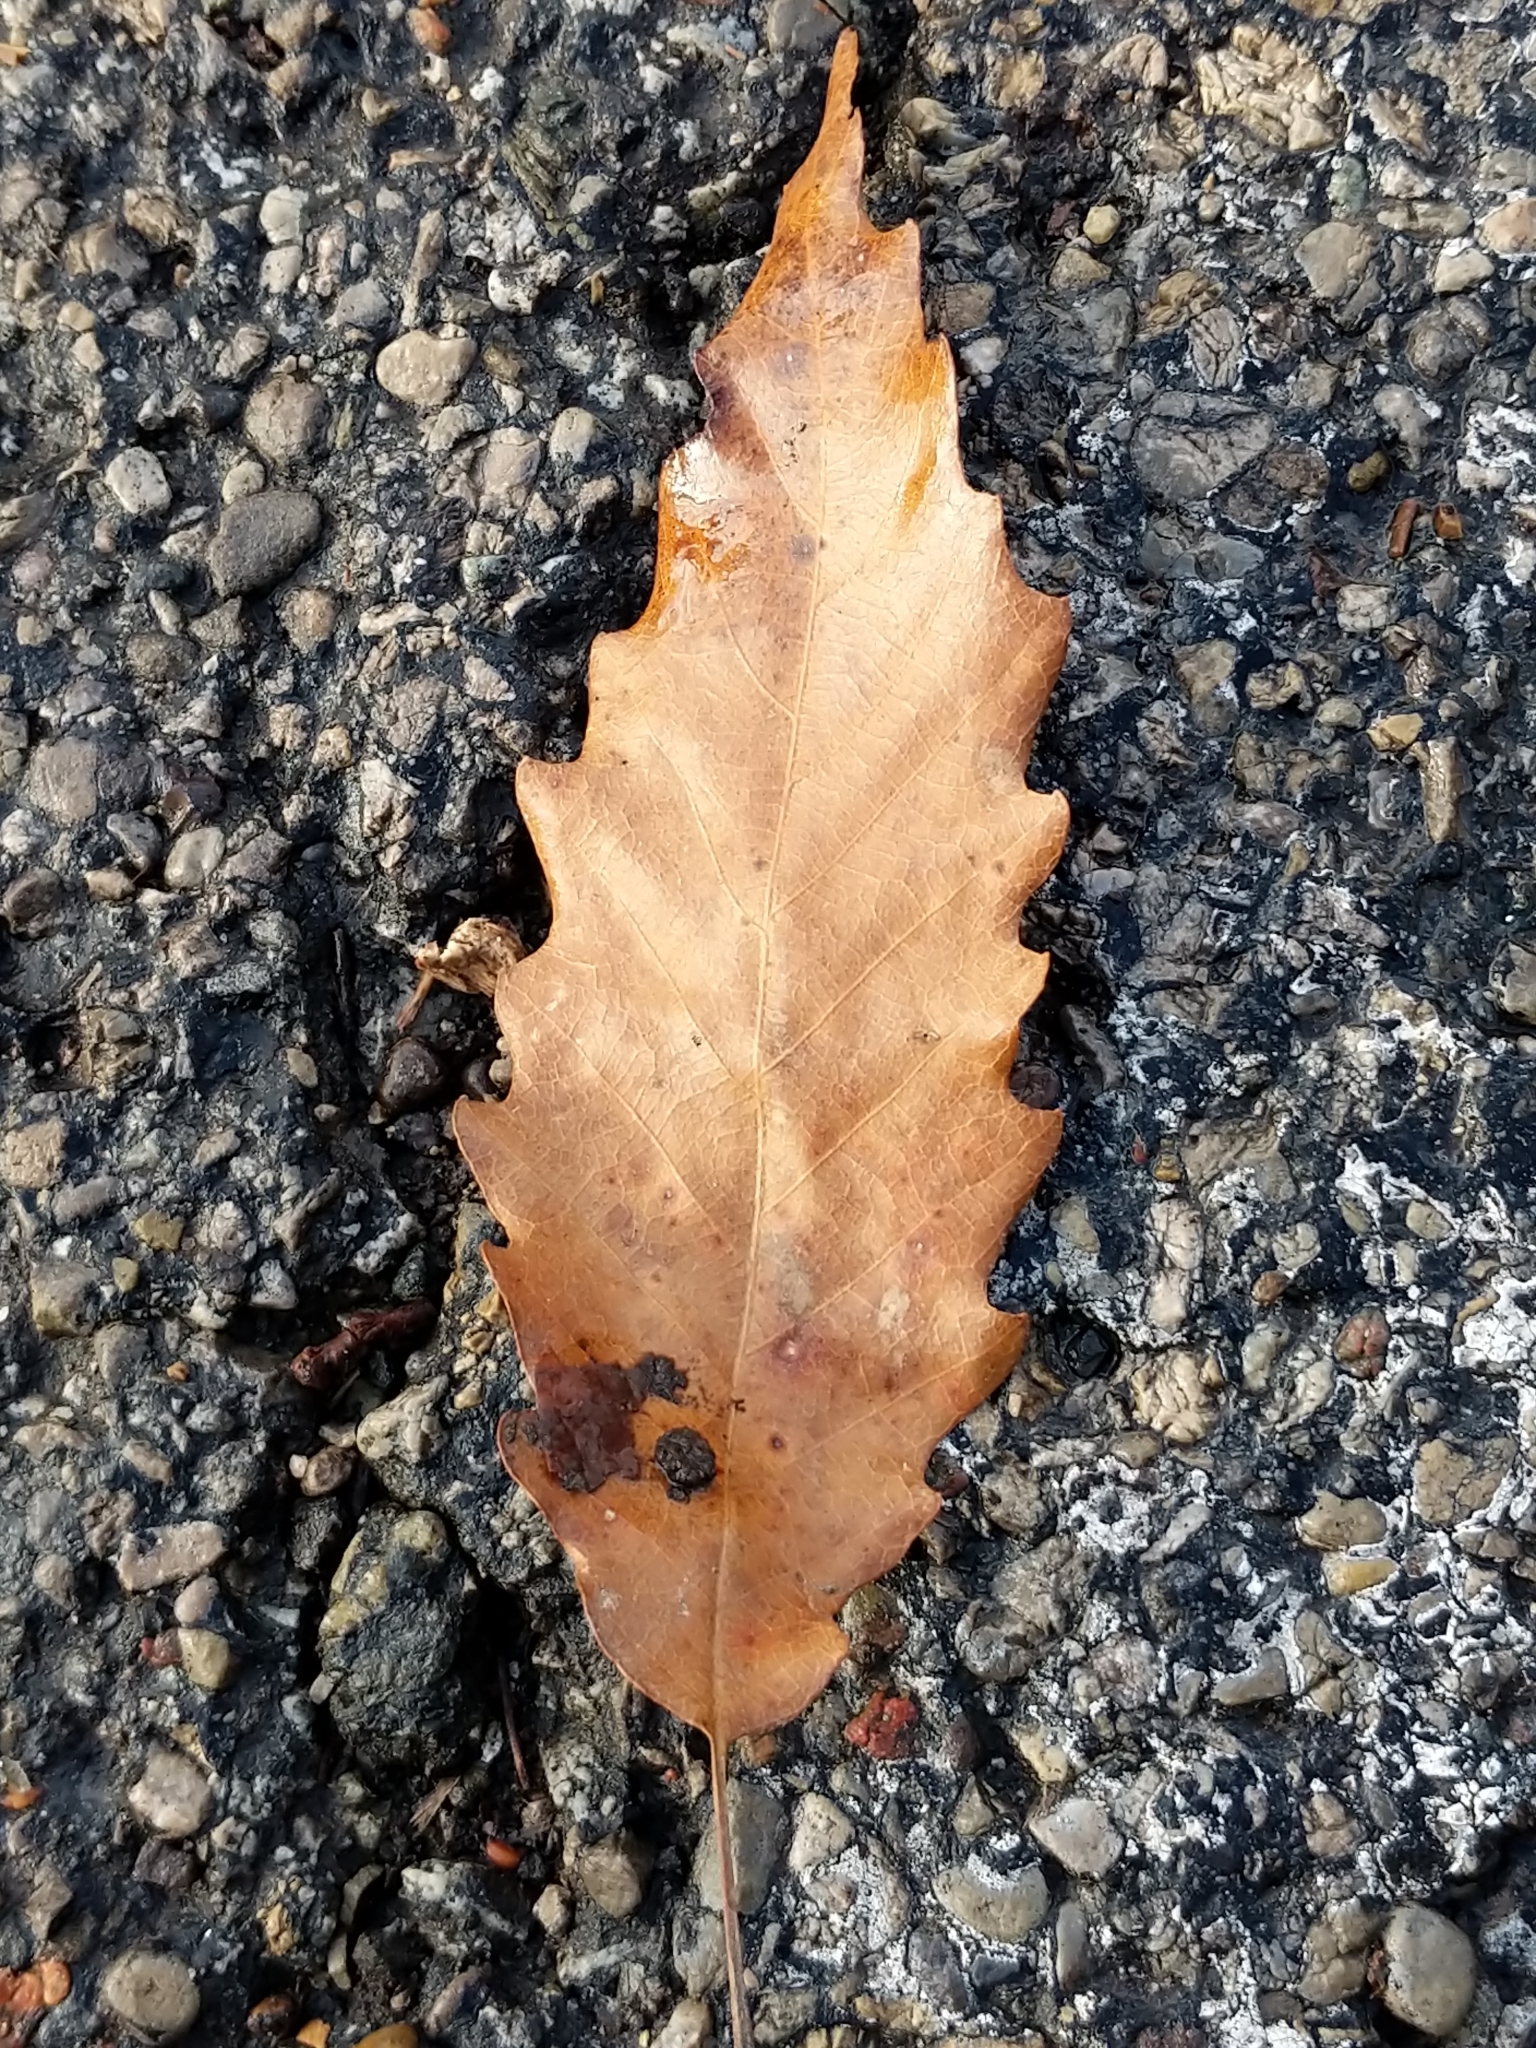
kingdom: Plantae
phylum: Tracheophyta
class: Magnoliopsida
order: Fagales
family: Fagaceae
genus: Quercus
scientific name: Quercus muehlenbergii
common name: Chinkapin oak
